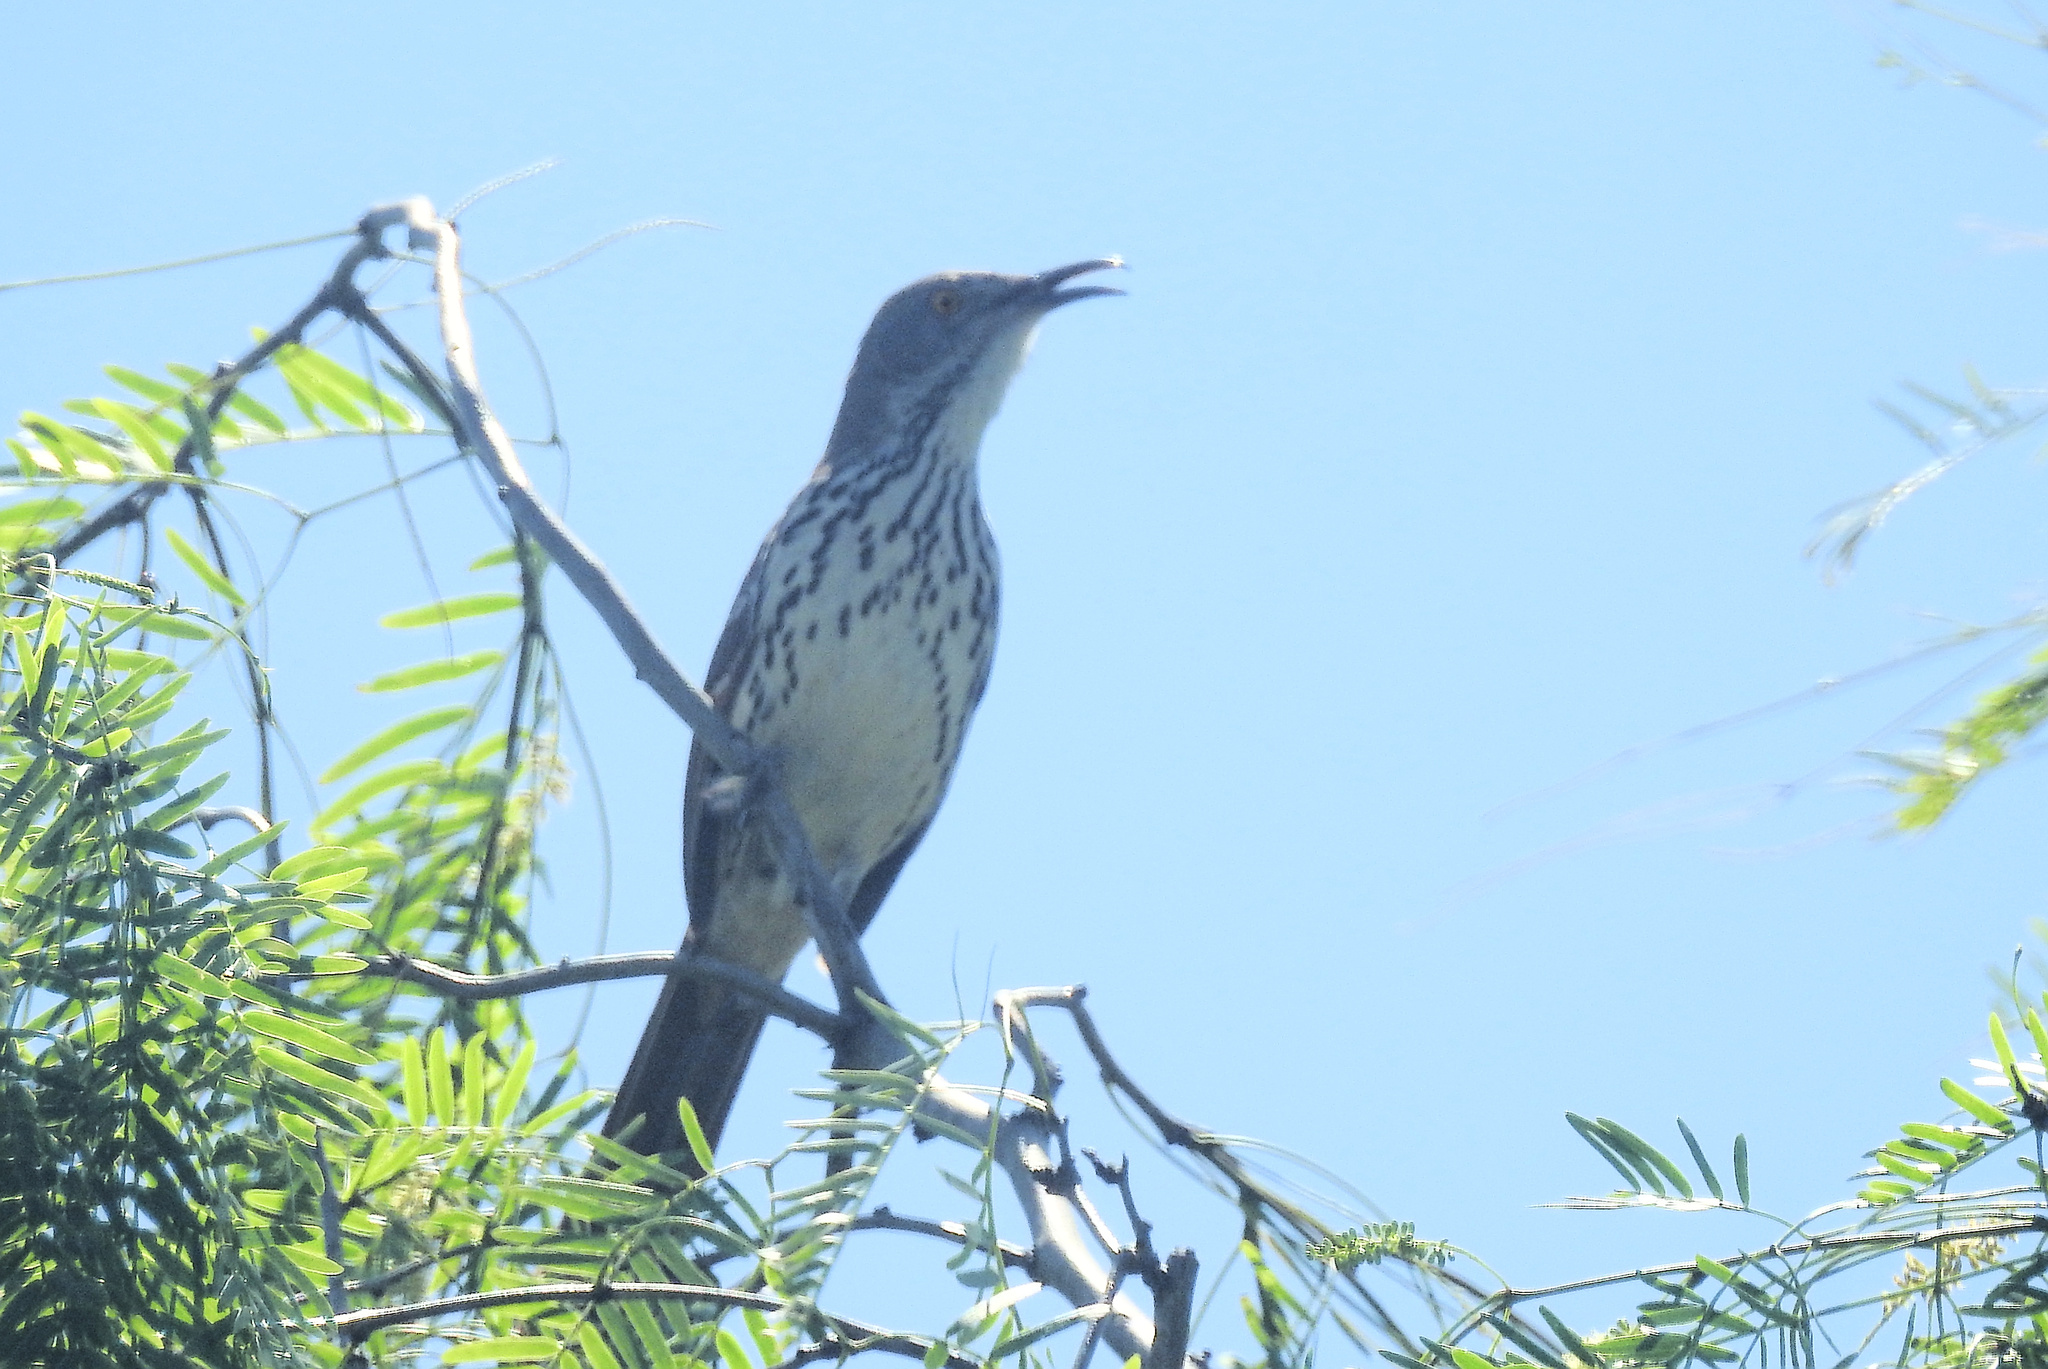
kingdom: Animalia
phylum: Chordata
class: Aves
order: Passeriformes
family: Mimidae
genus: Toxostoma
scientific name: Toxostoma longirostre
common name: Long-billed thrasher
